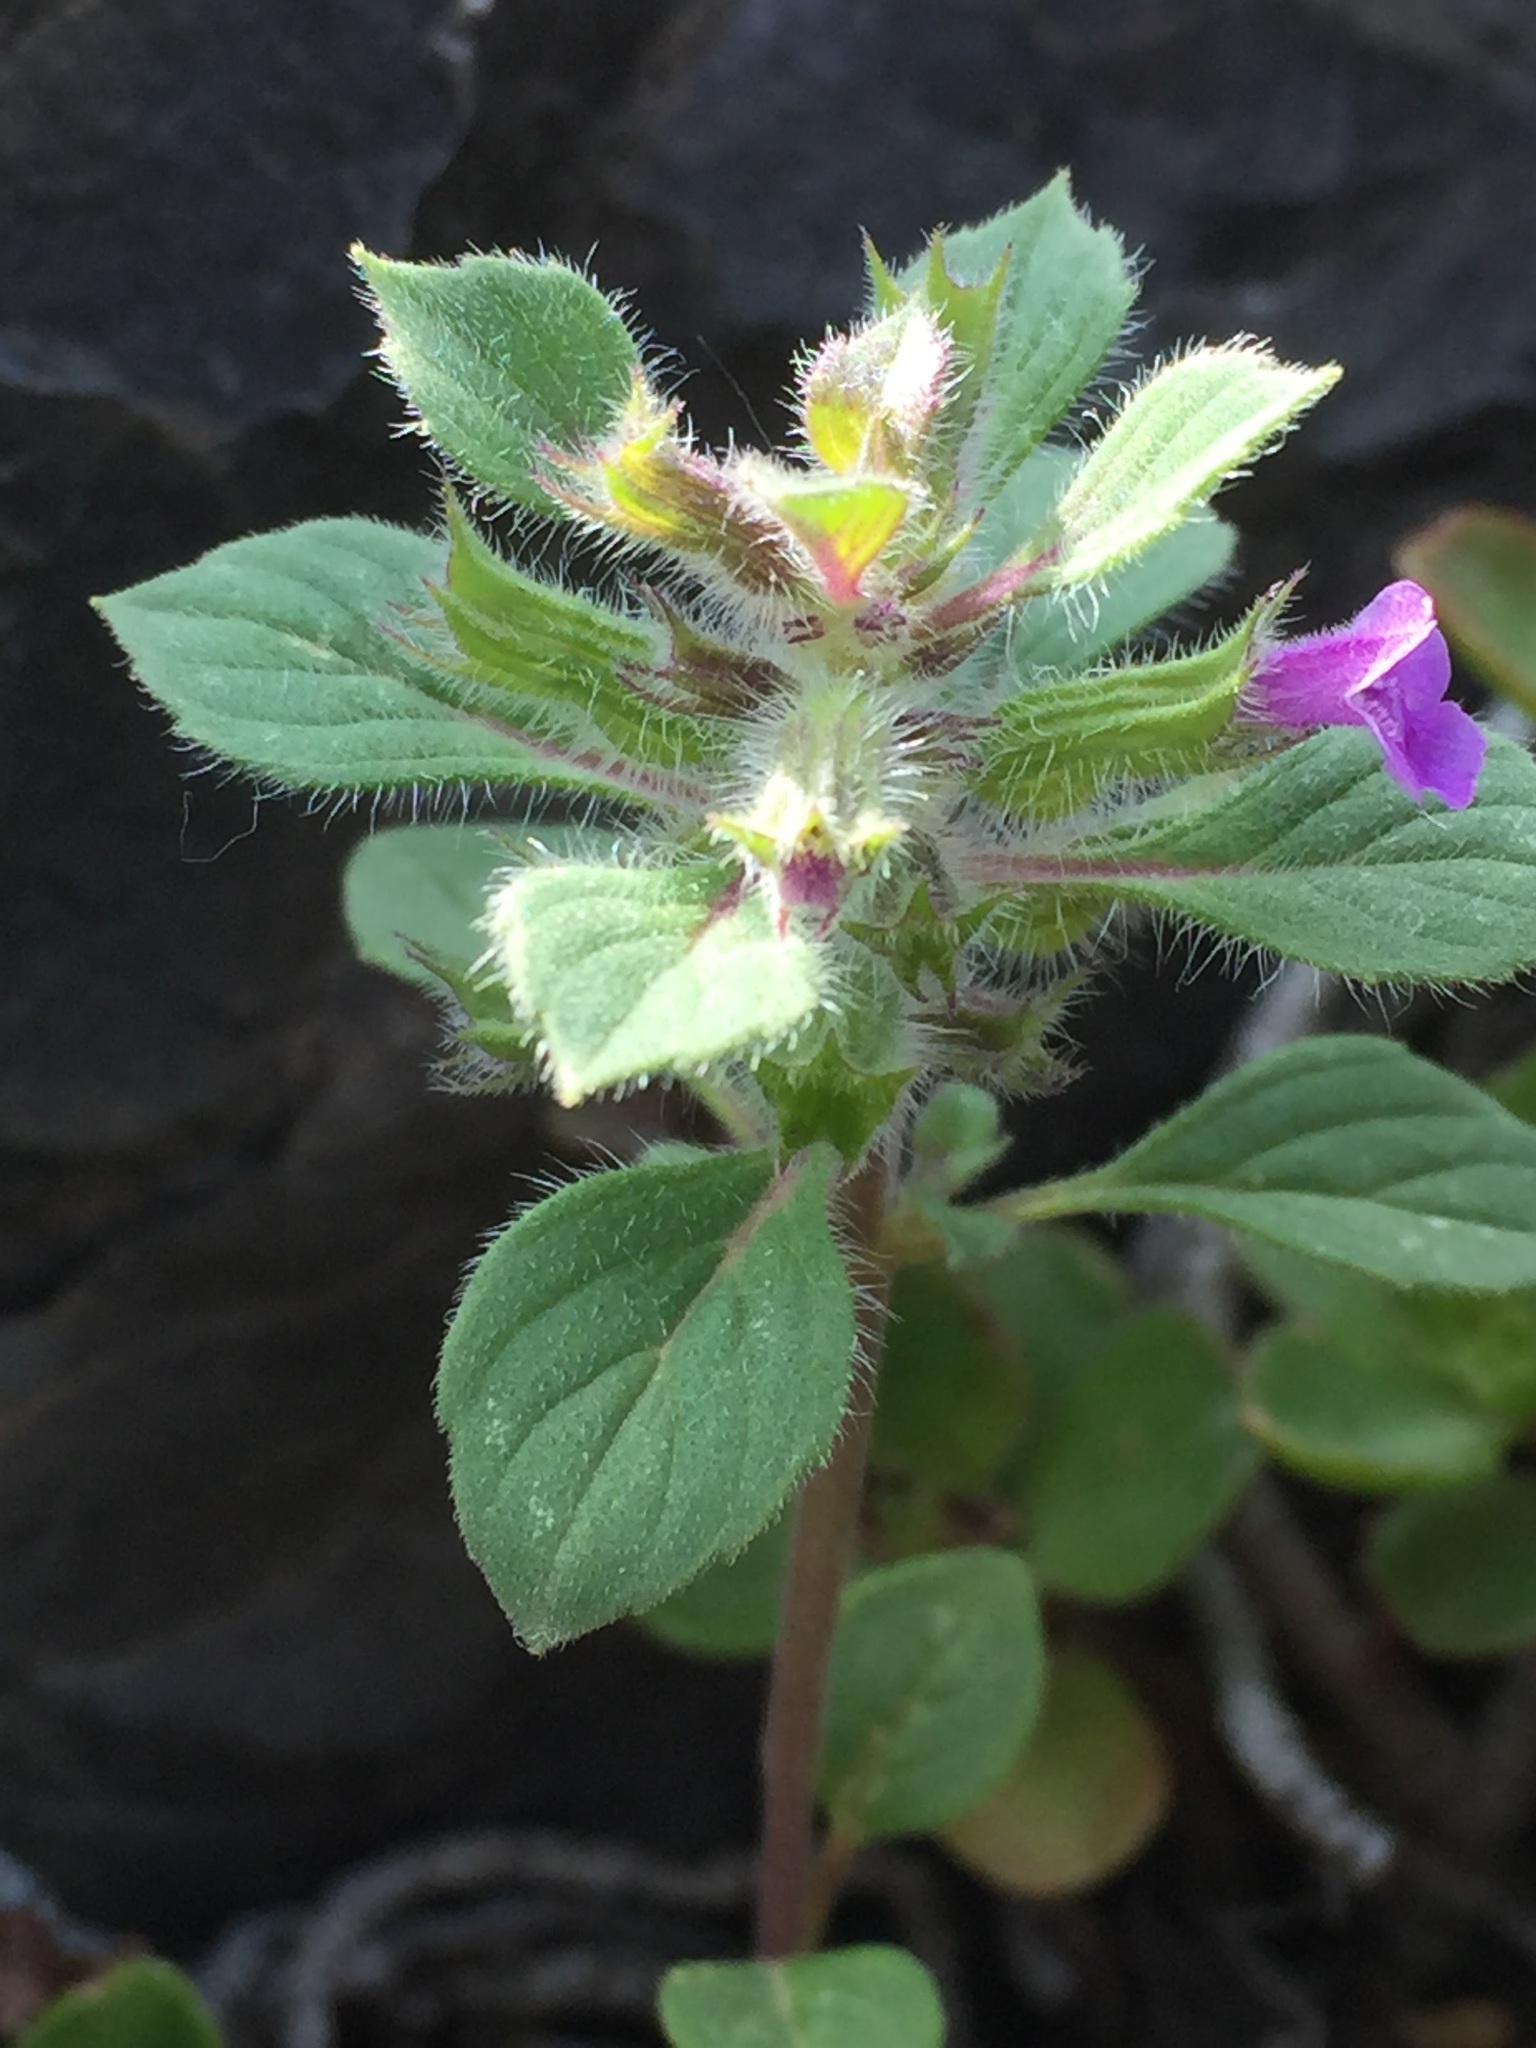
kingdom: Plantae
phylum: Tracheophyta
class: Magnoliopsida
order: Lamiales
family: Lamiaceae
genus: Clinopodium
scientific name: Clinopodium graveolens
